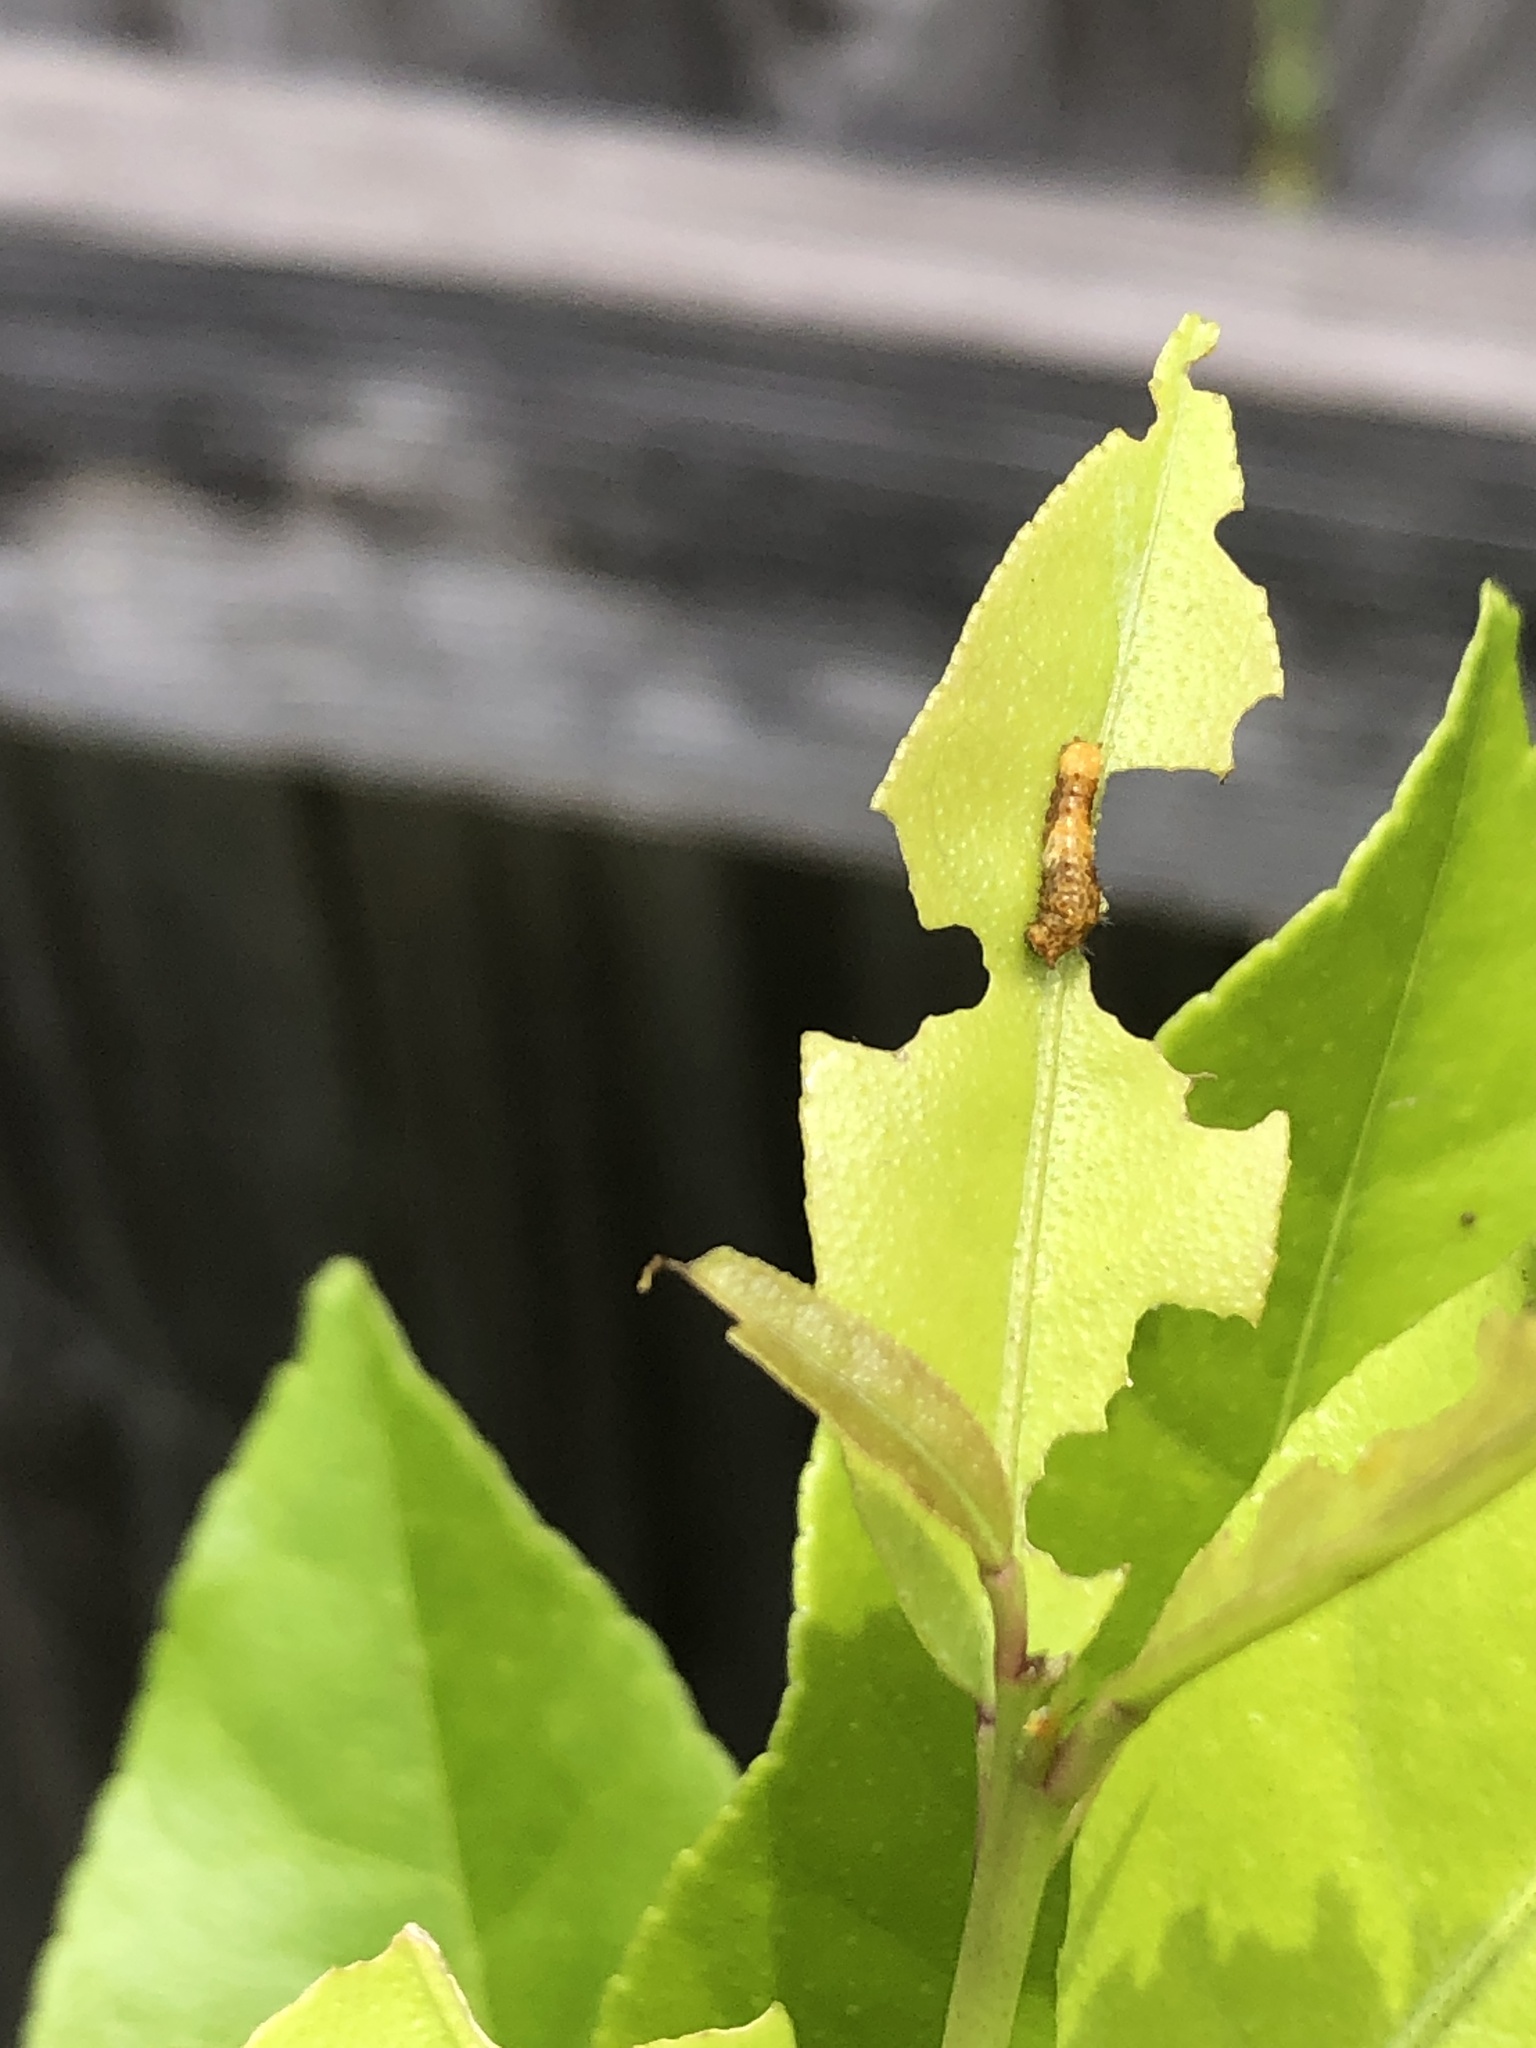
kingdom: Animalia
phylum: Arthropoda
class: Insecta
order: Lepidoptera
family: Papilionidae
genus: Papilio
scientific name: Papilio cresphontes
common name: Giant swallowtail
